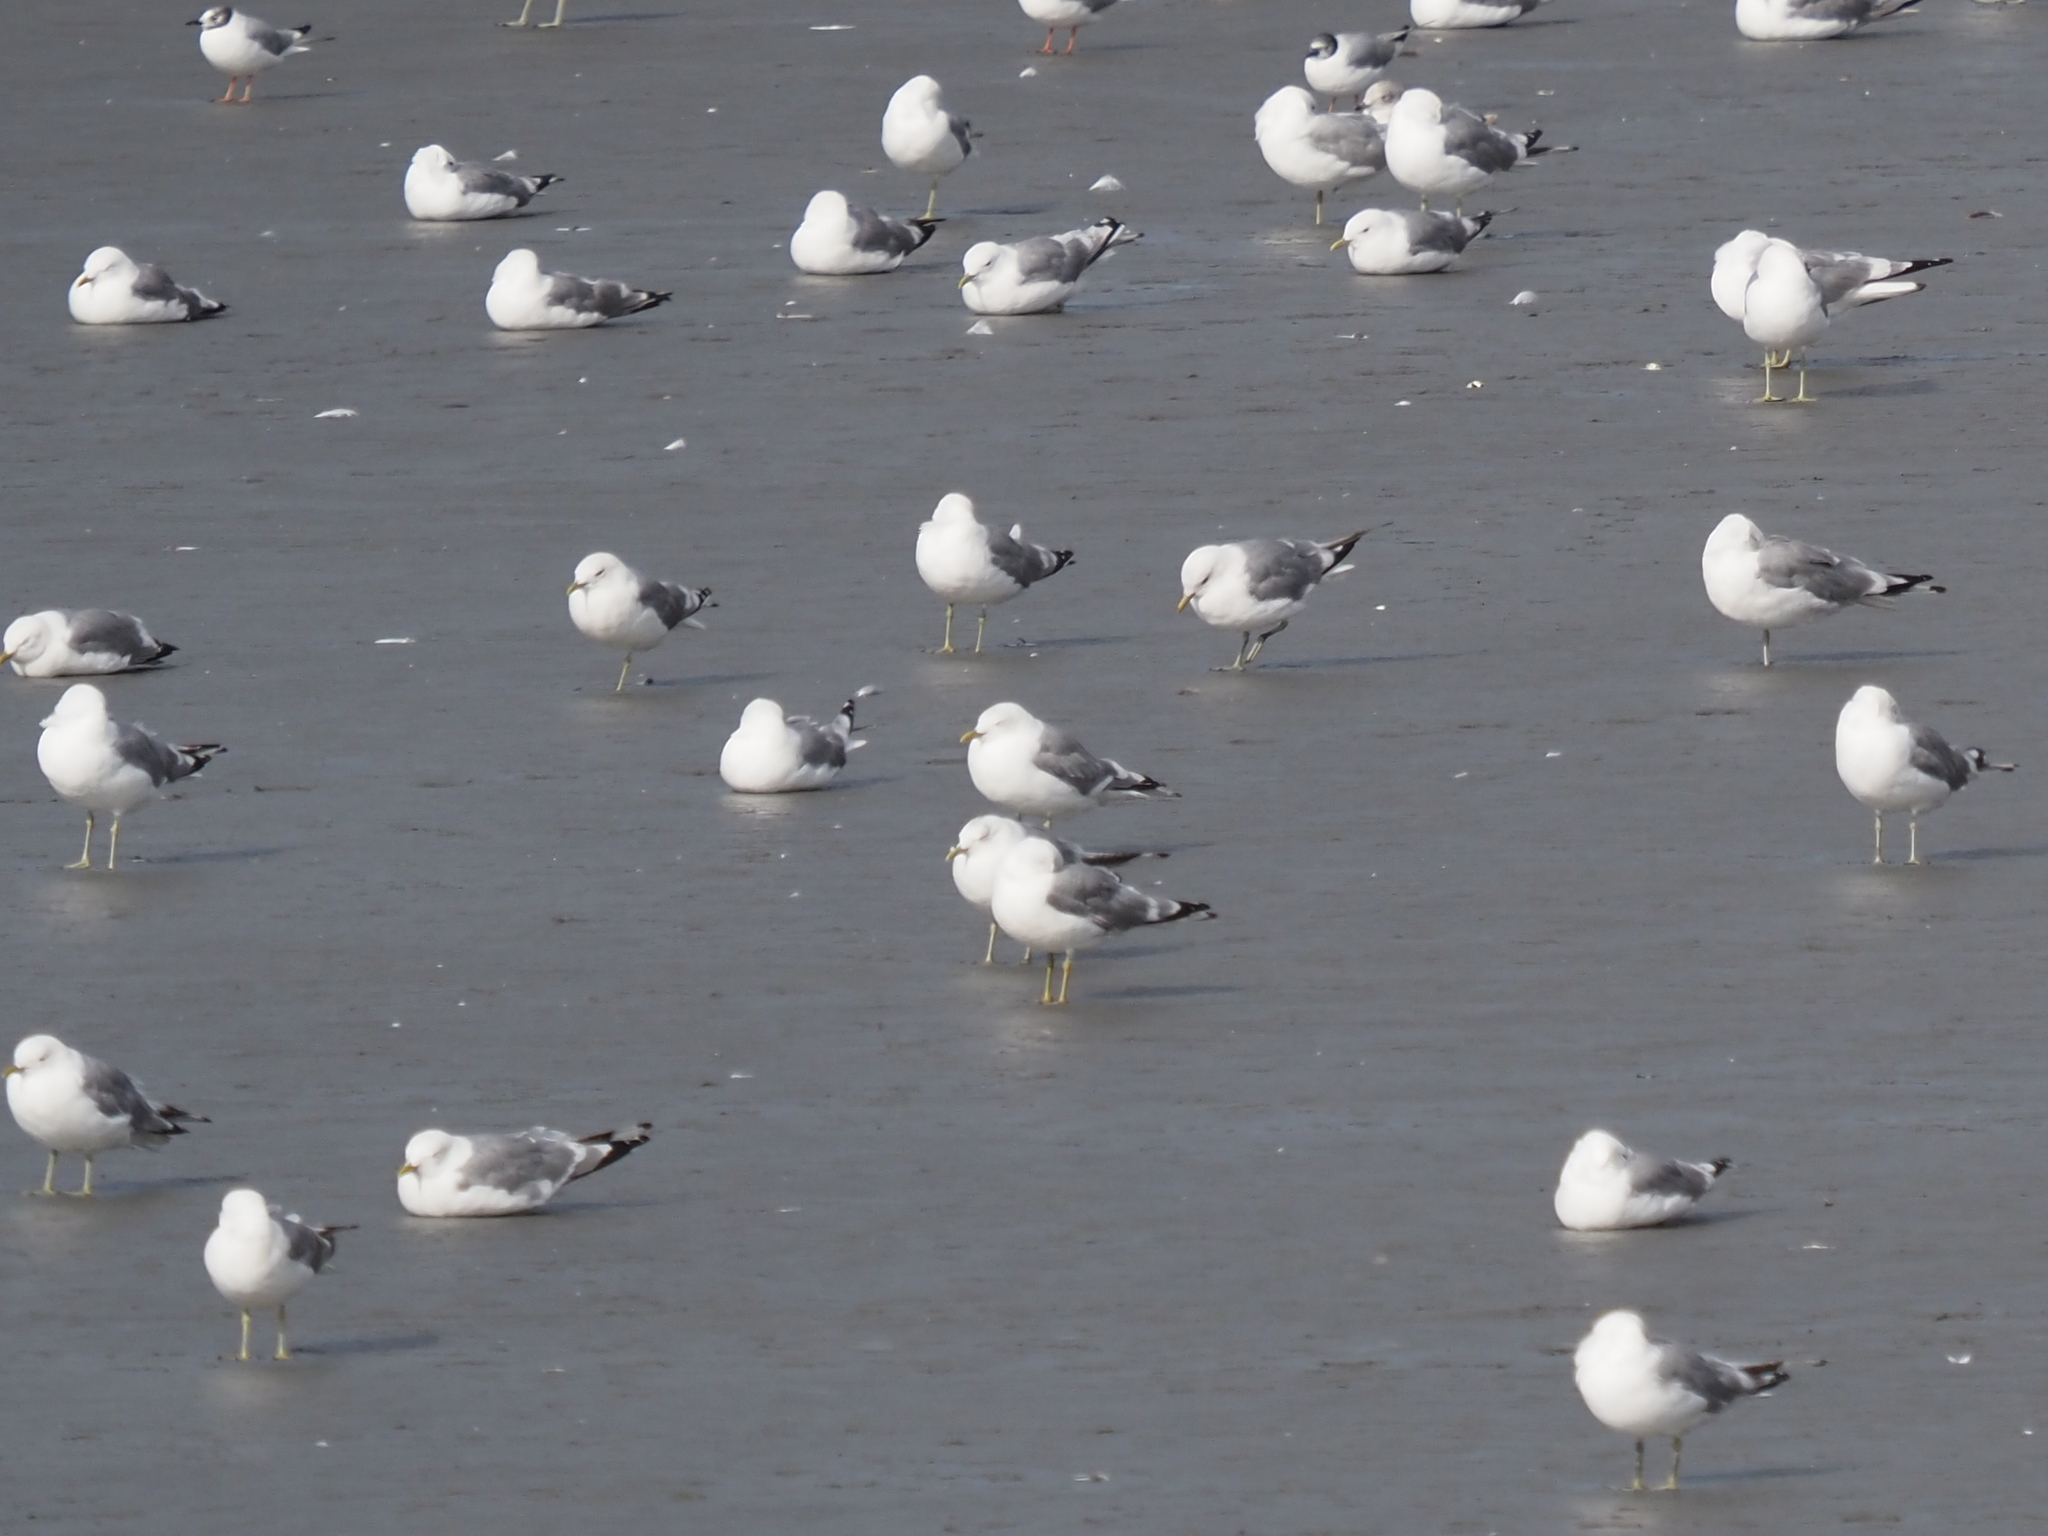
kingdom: Animalia
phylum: Chordata
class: Aves
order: Charadriiformes
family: Laridae
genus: Larus
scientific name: Larus brachyrhynchus
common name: Short-billed gull
